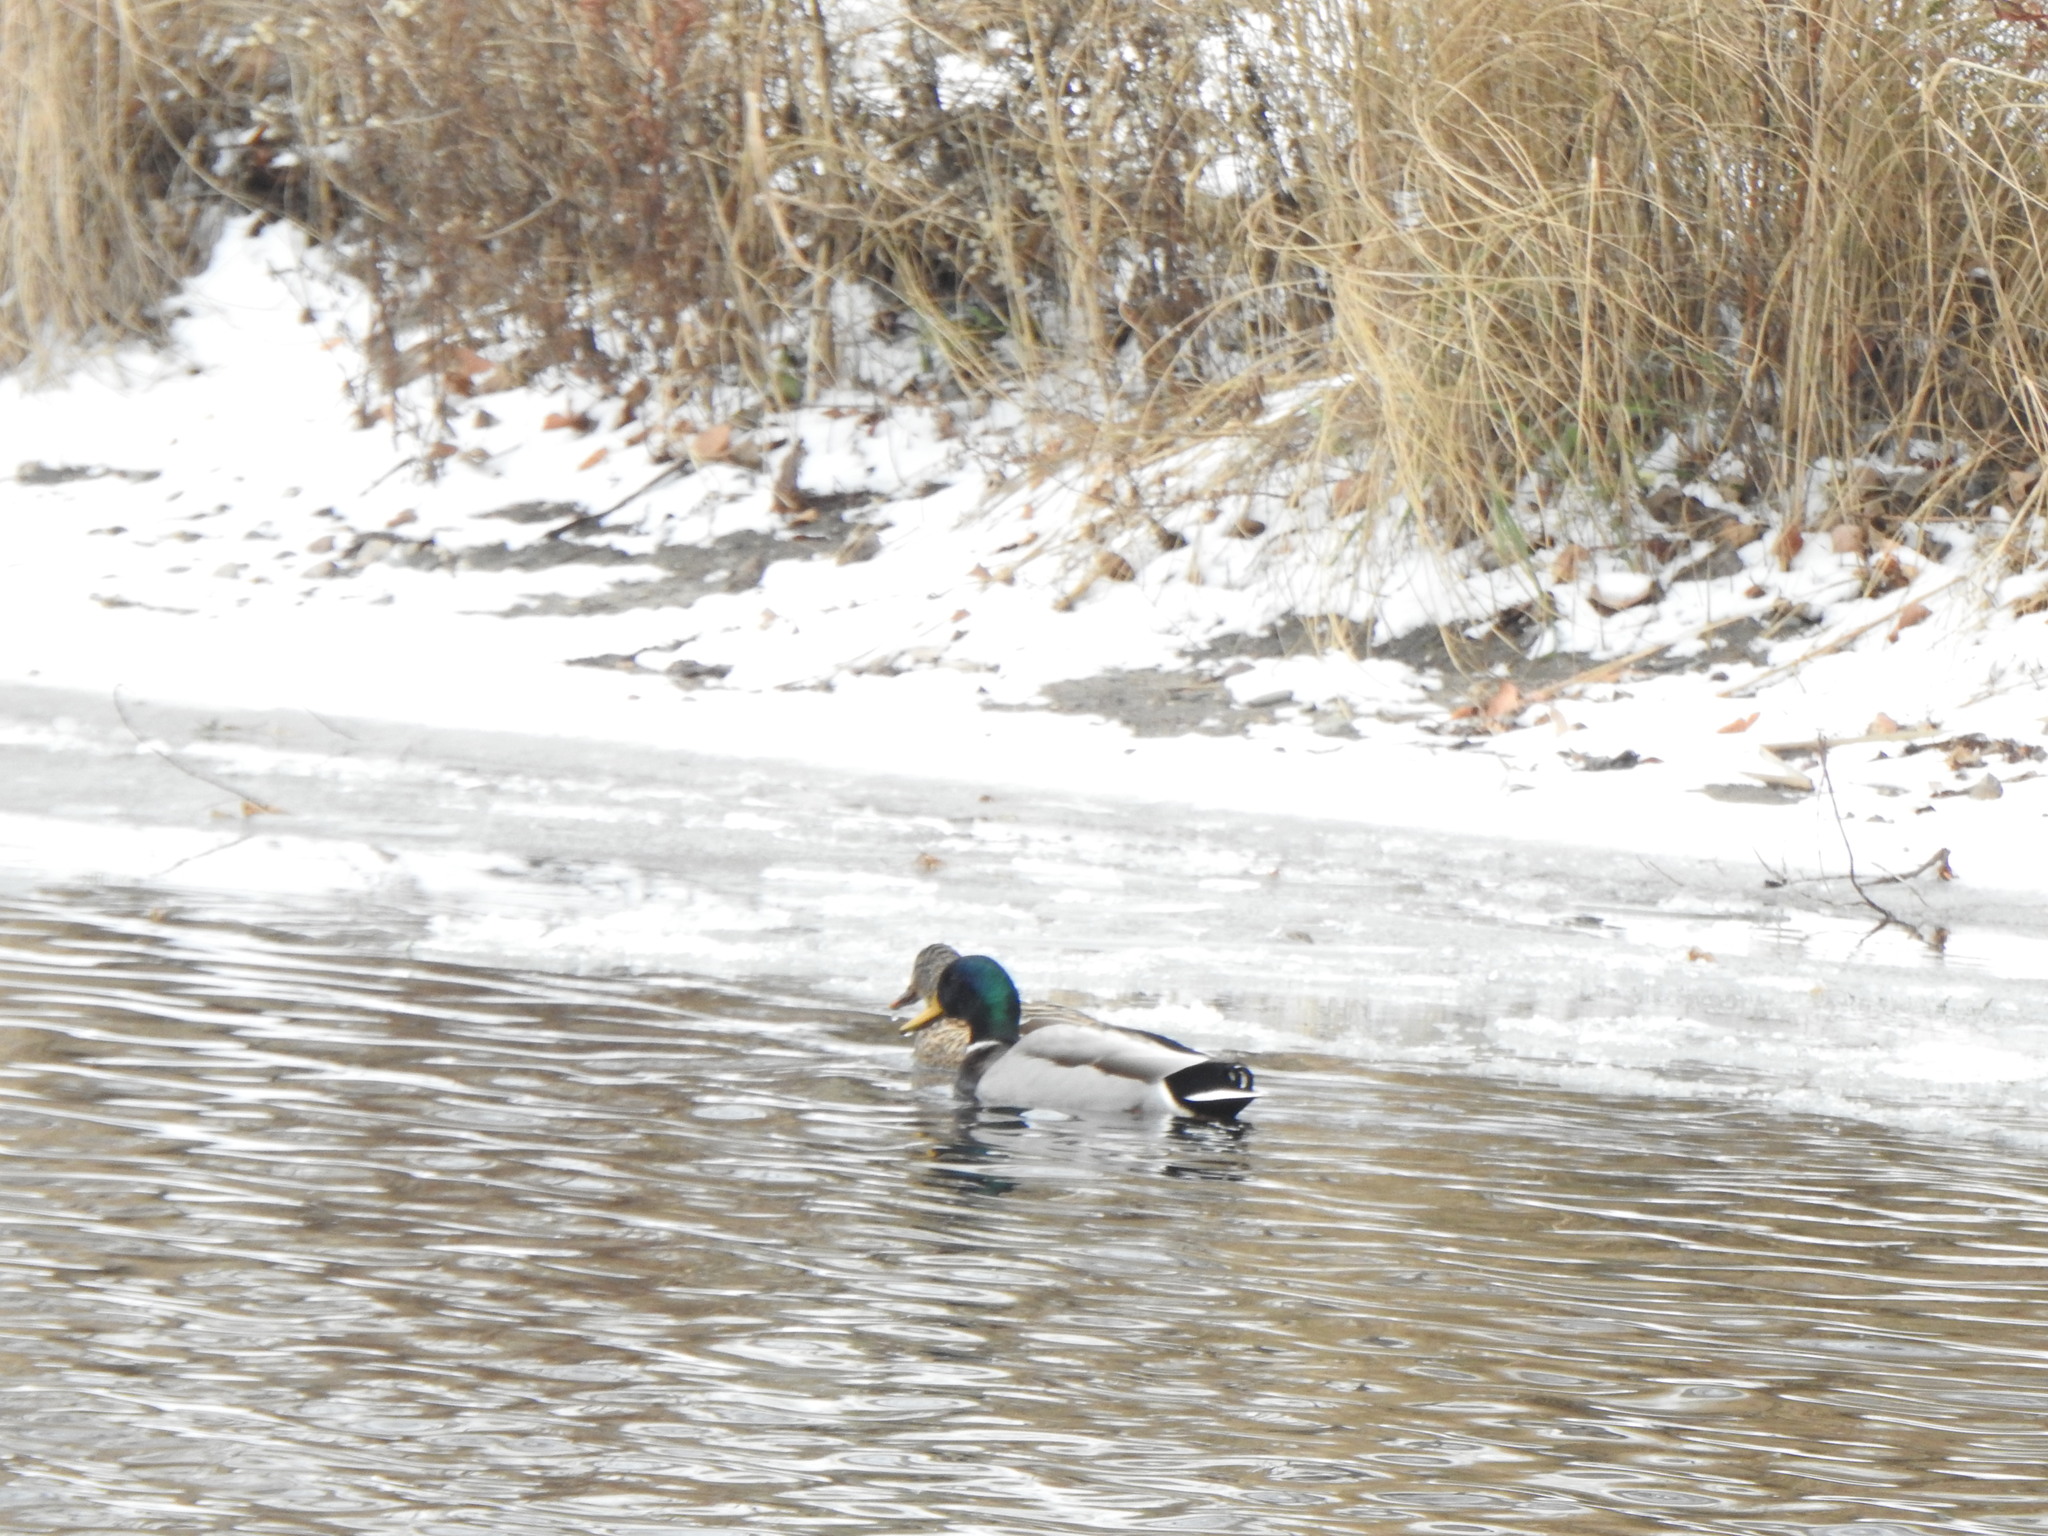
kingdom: Animalia
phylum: Chordata
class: Aves
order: Anseriformes
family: Anatidae
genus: Anas
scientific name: Anas platyrhynchos
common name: Mallard
